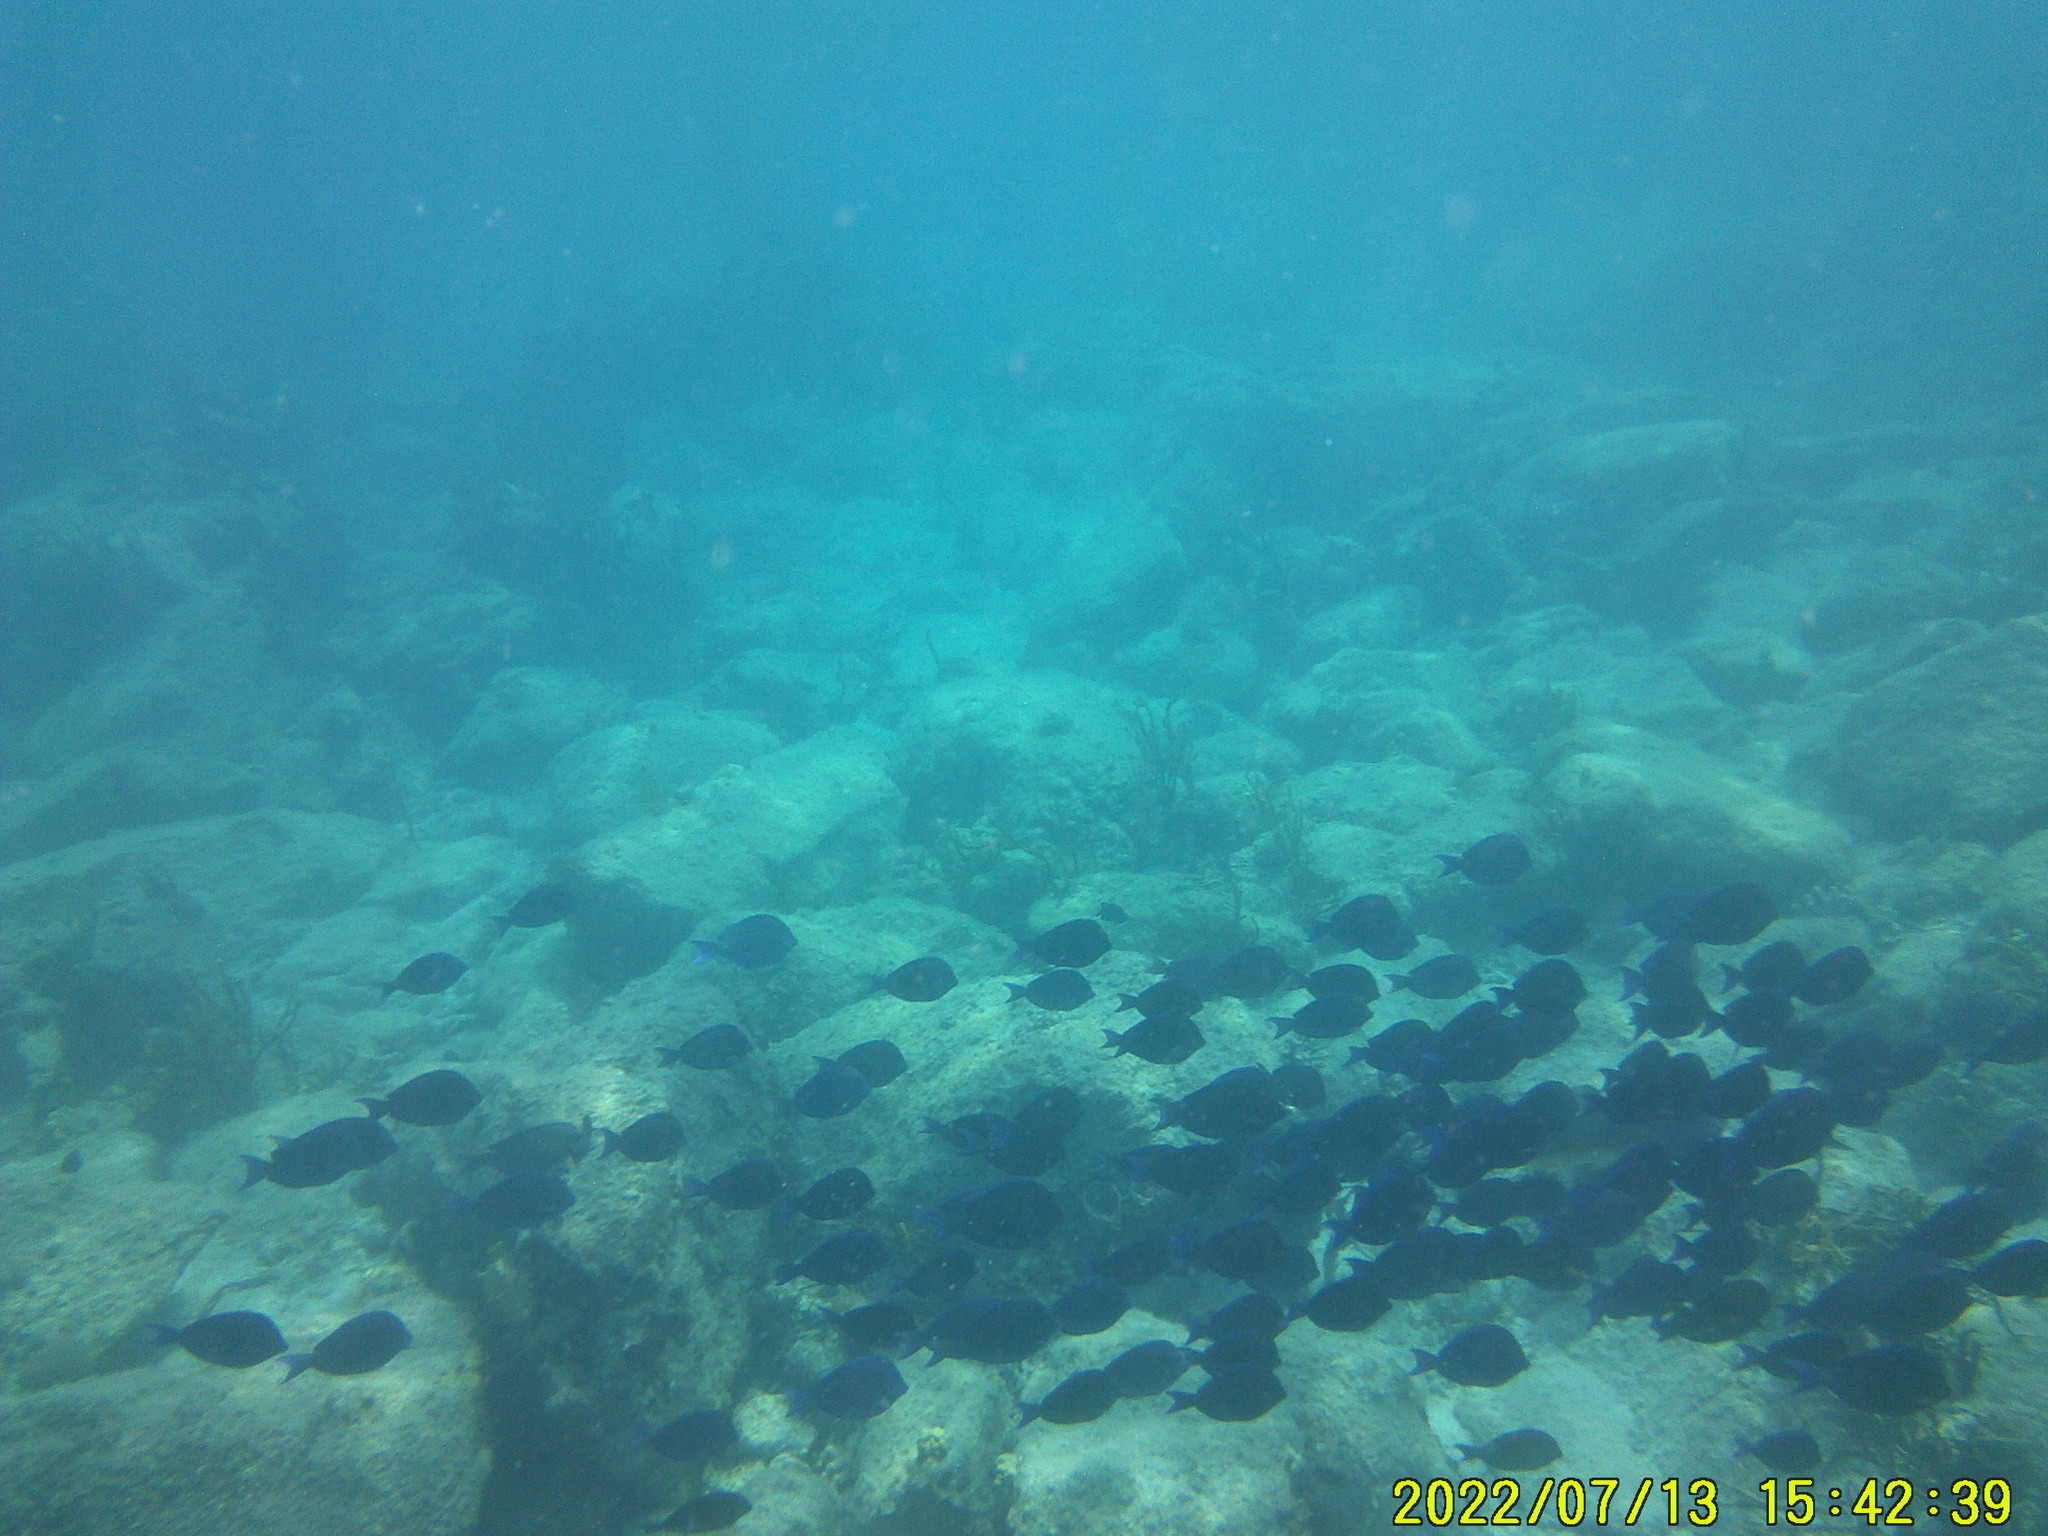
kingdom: Animalia
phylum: Chordata
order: Perciformes
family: Acanthuridae
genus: Acanthurus
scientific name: Acanthurus coeruleus
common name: Blue tang
